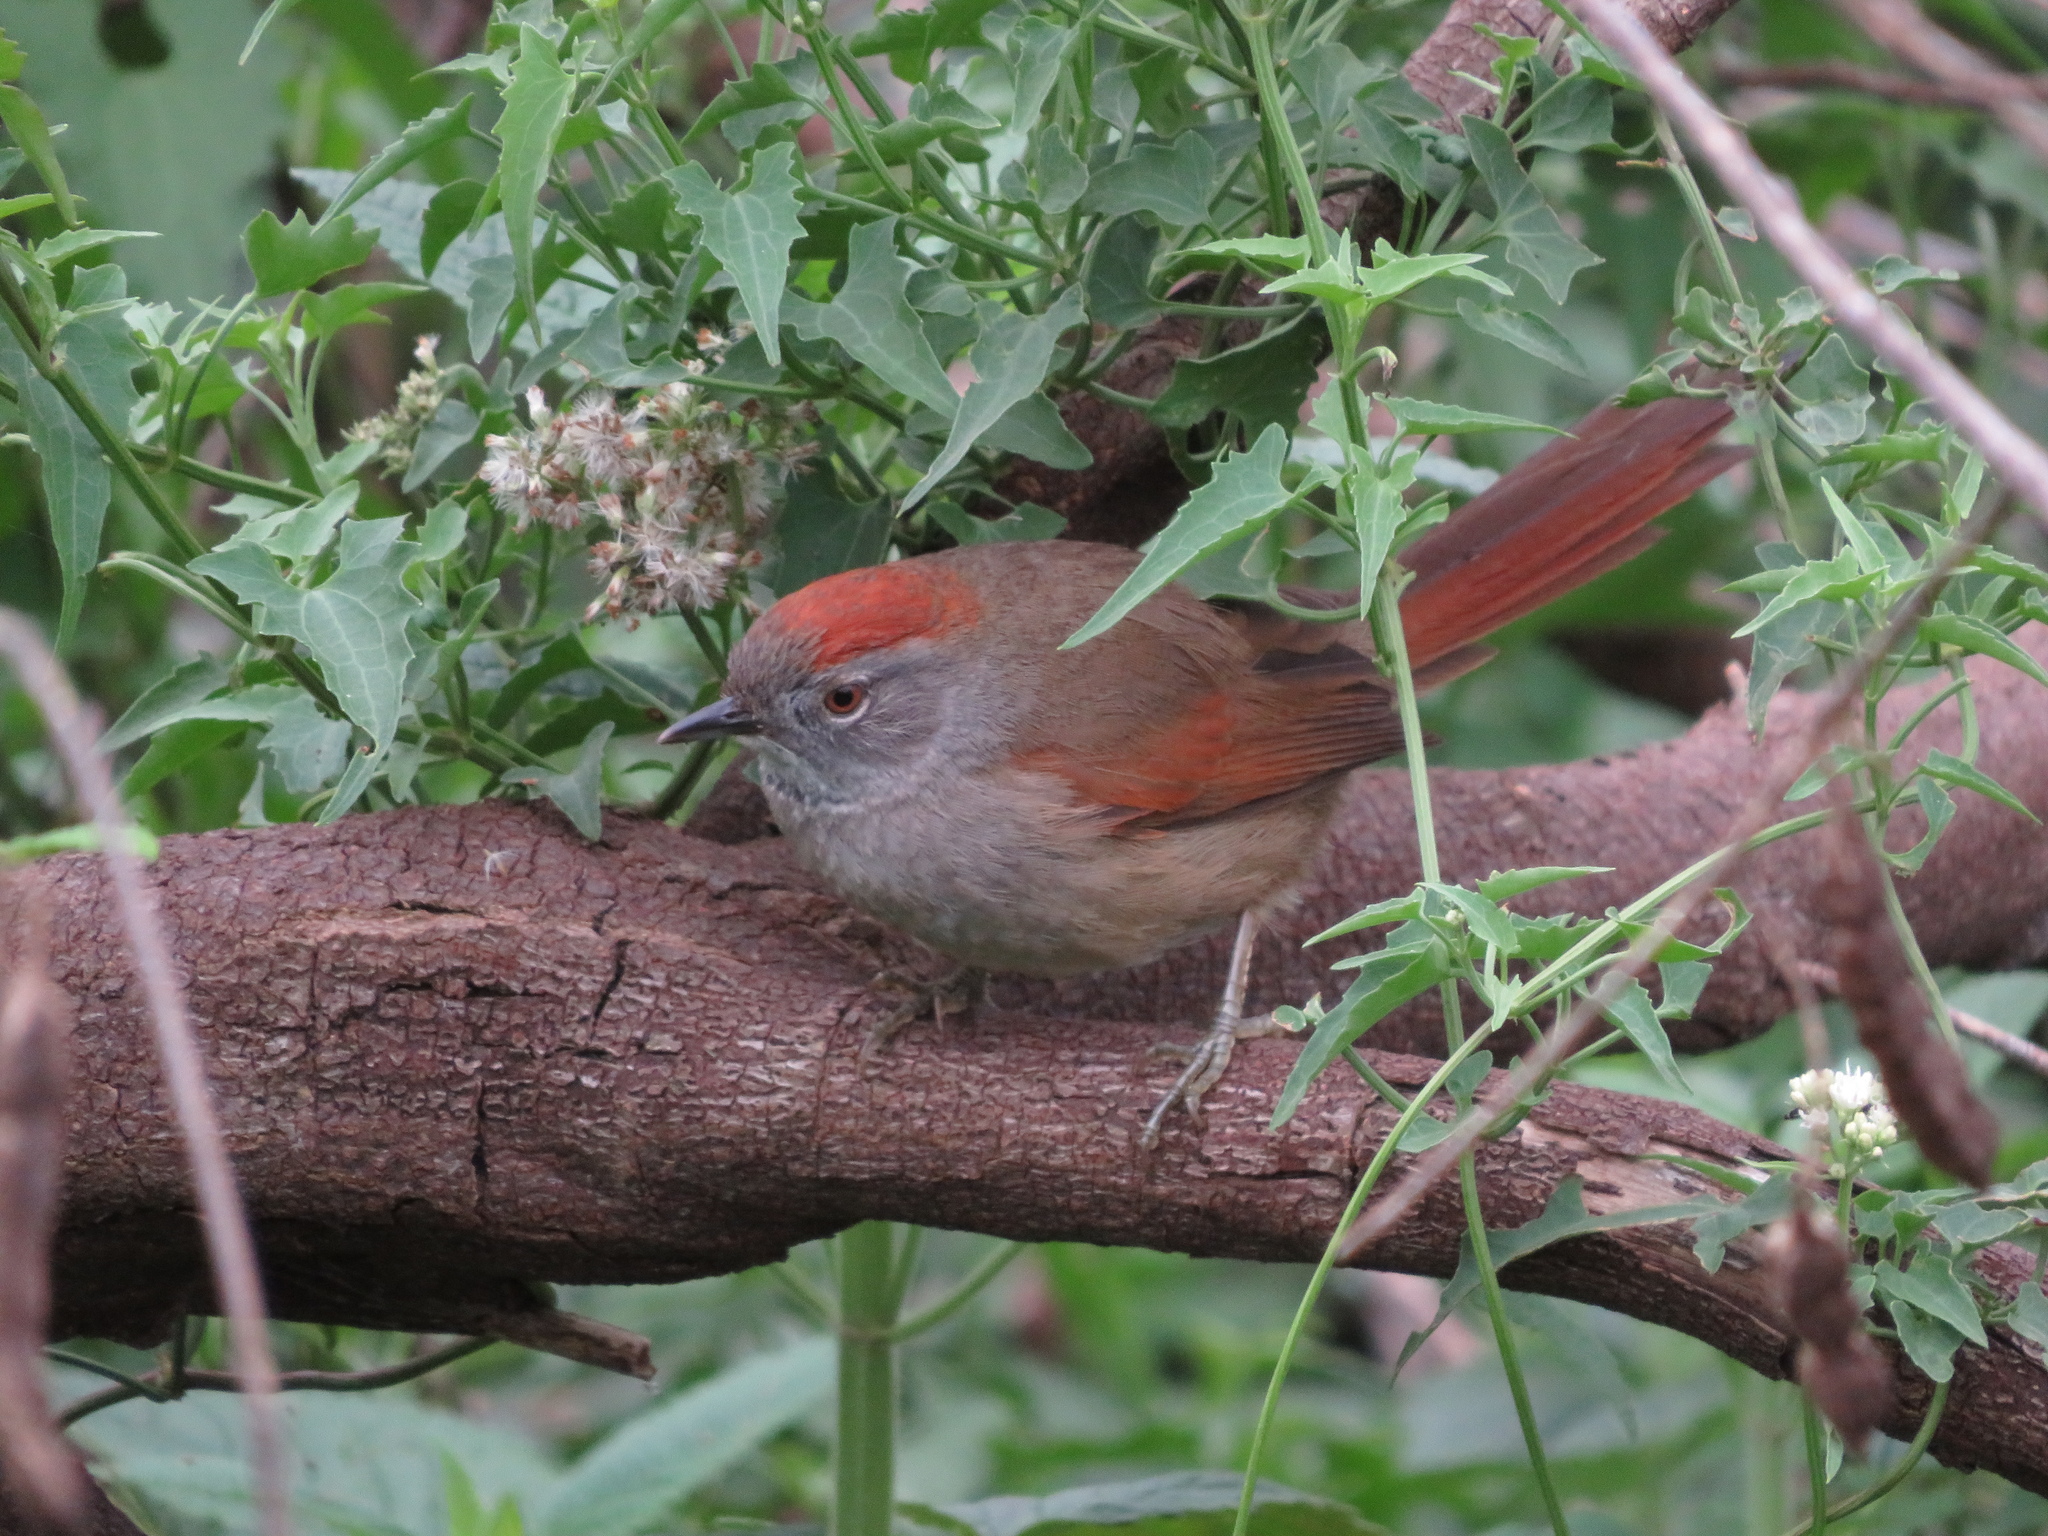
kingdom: Animalia
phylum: Chordata
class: Aves
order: Passeriformes
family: Furnariidae
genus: Synallaxis
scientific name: Synallaxis frontalis
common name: Sooty-fronted spinetail
